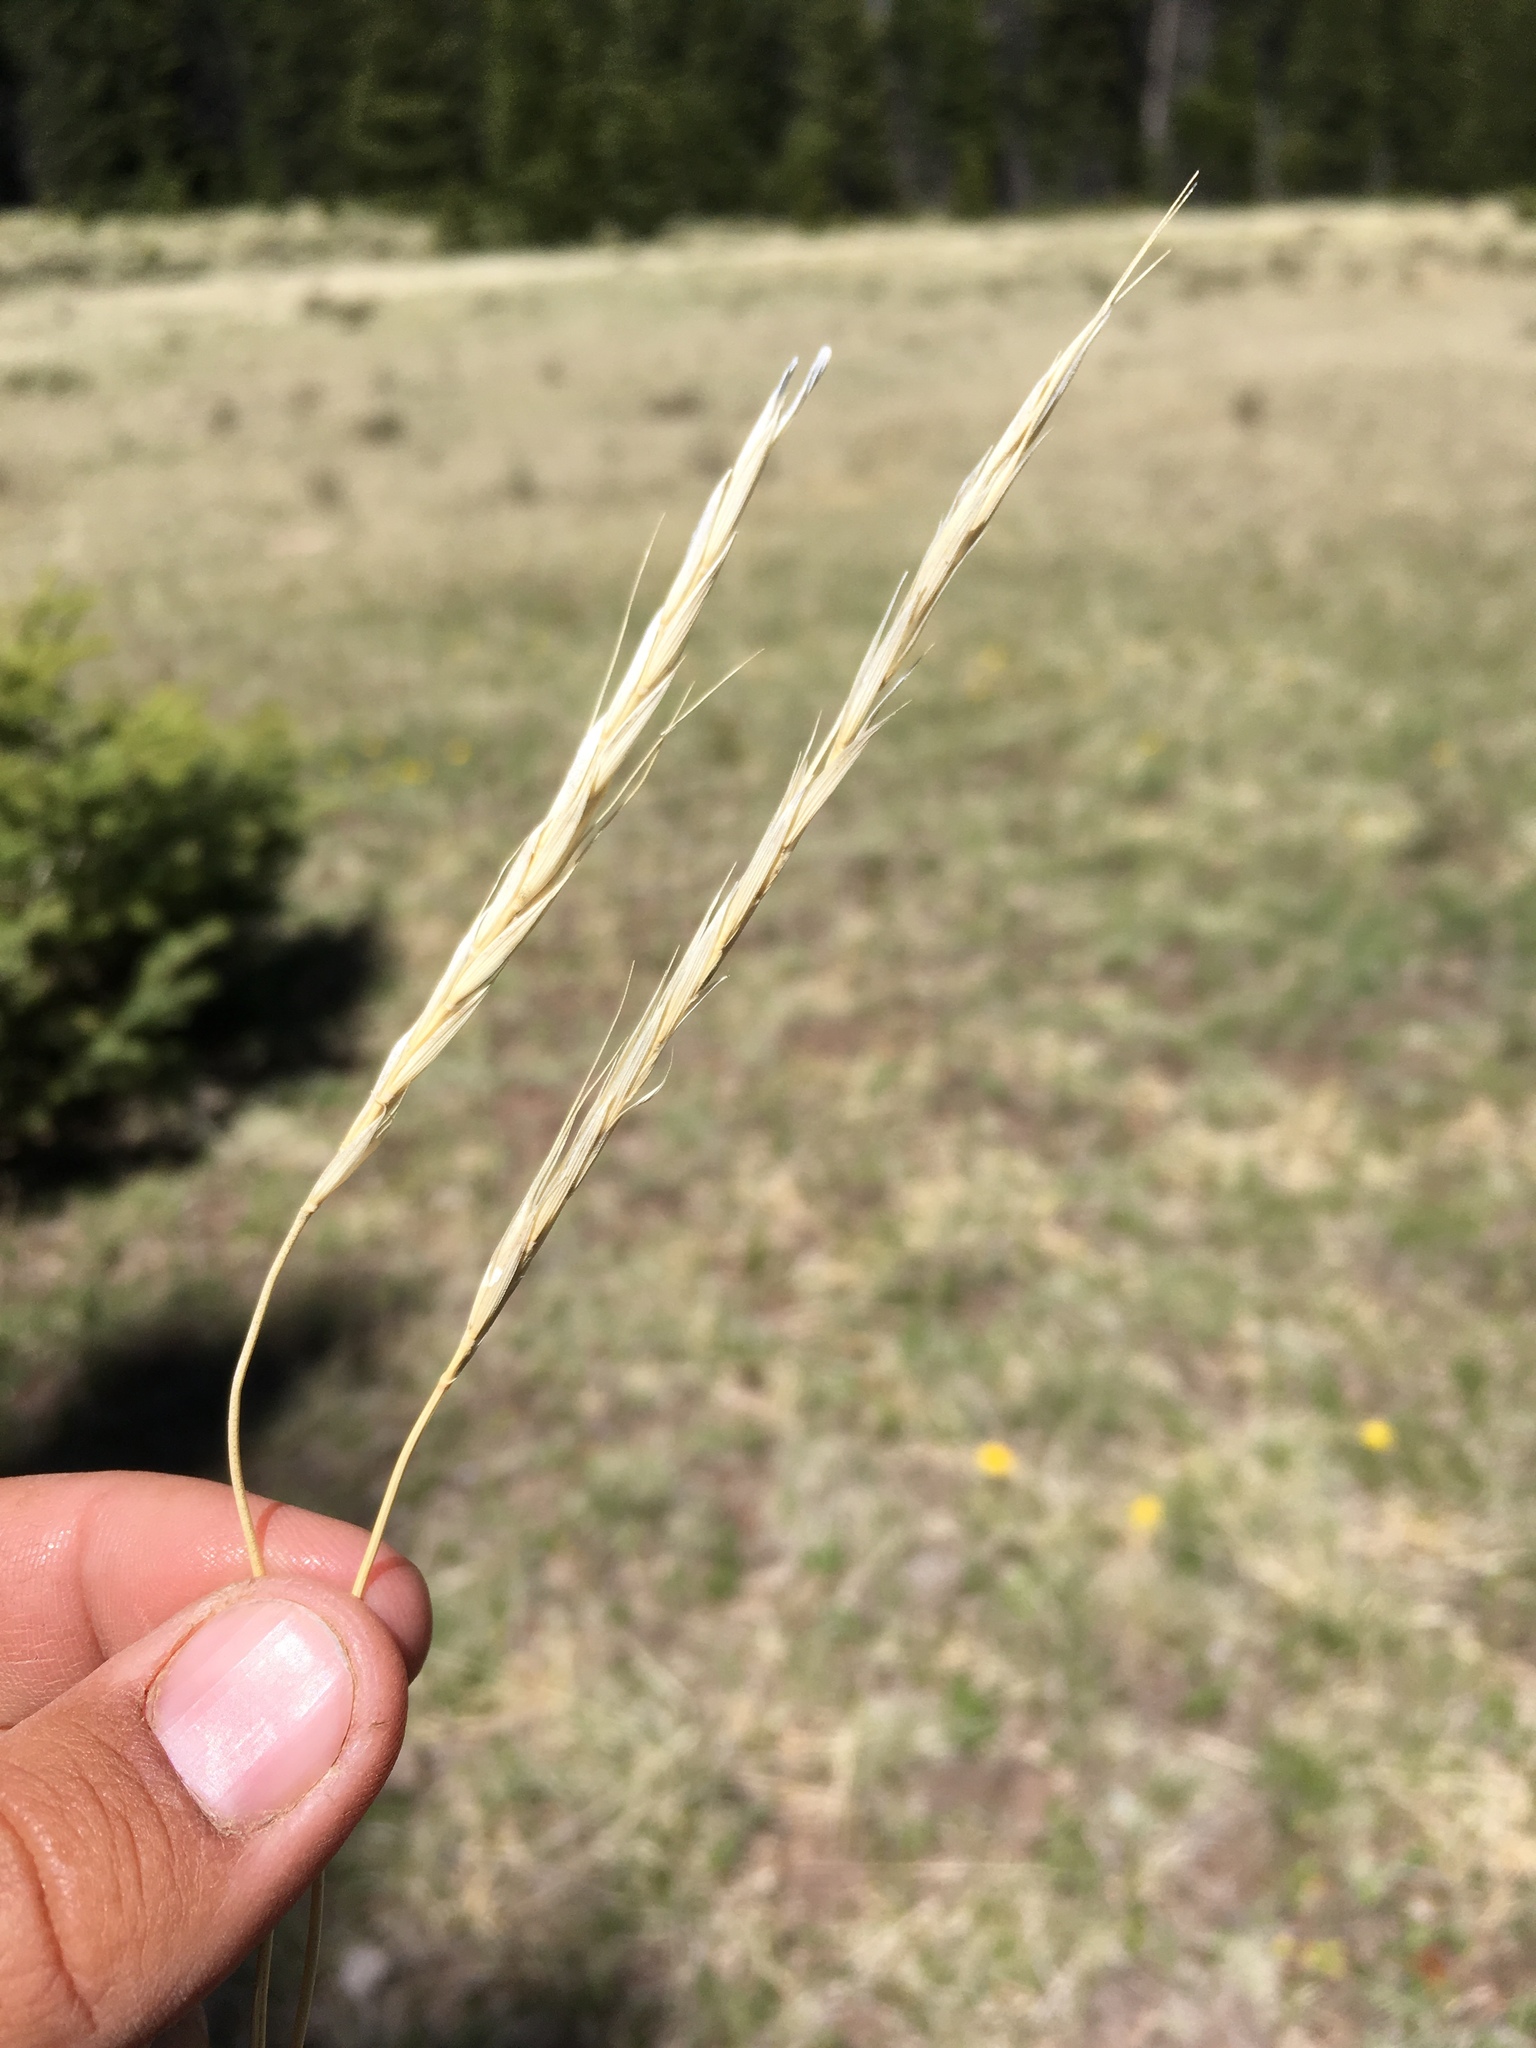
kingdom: Plantae
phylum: Tracheophyta
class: Liliopsida
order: Poales
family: Poaceae
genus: Elymus
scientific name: Elymus violaceus
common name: Arctic wheatgrass
